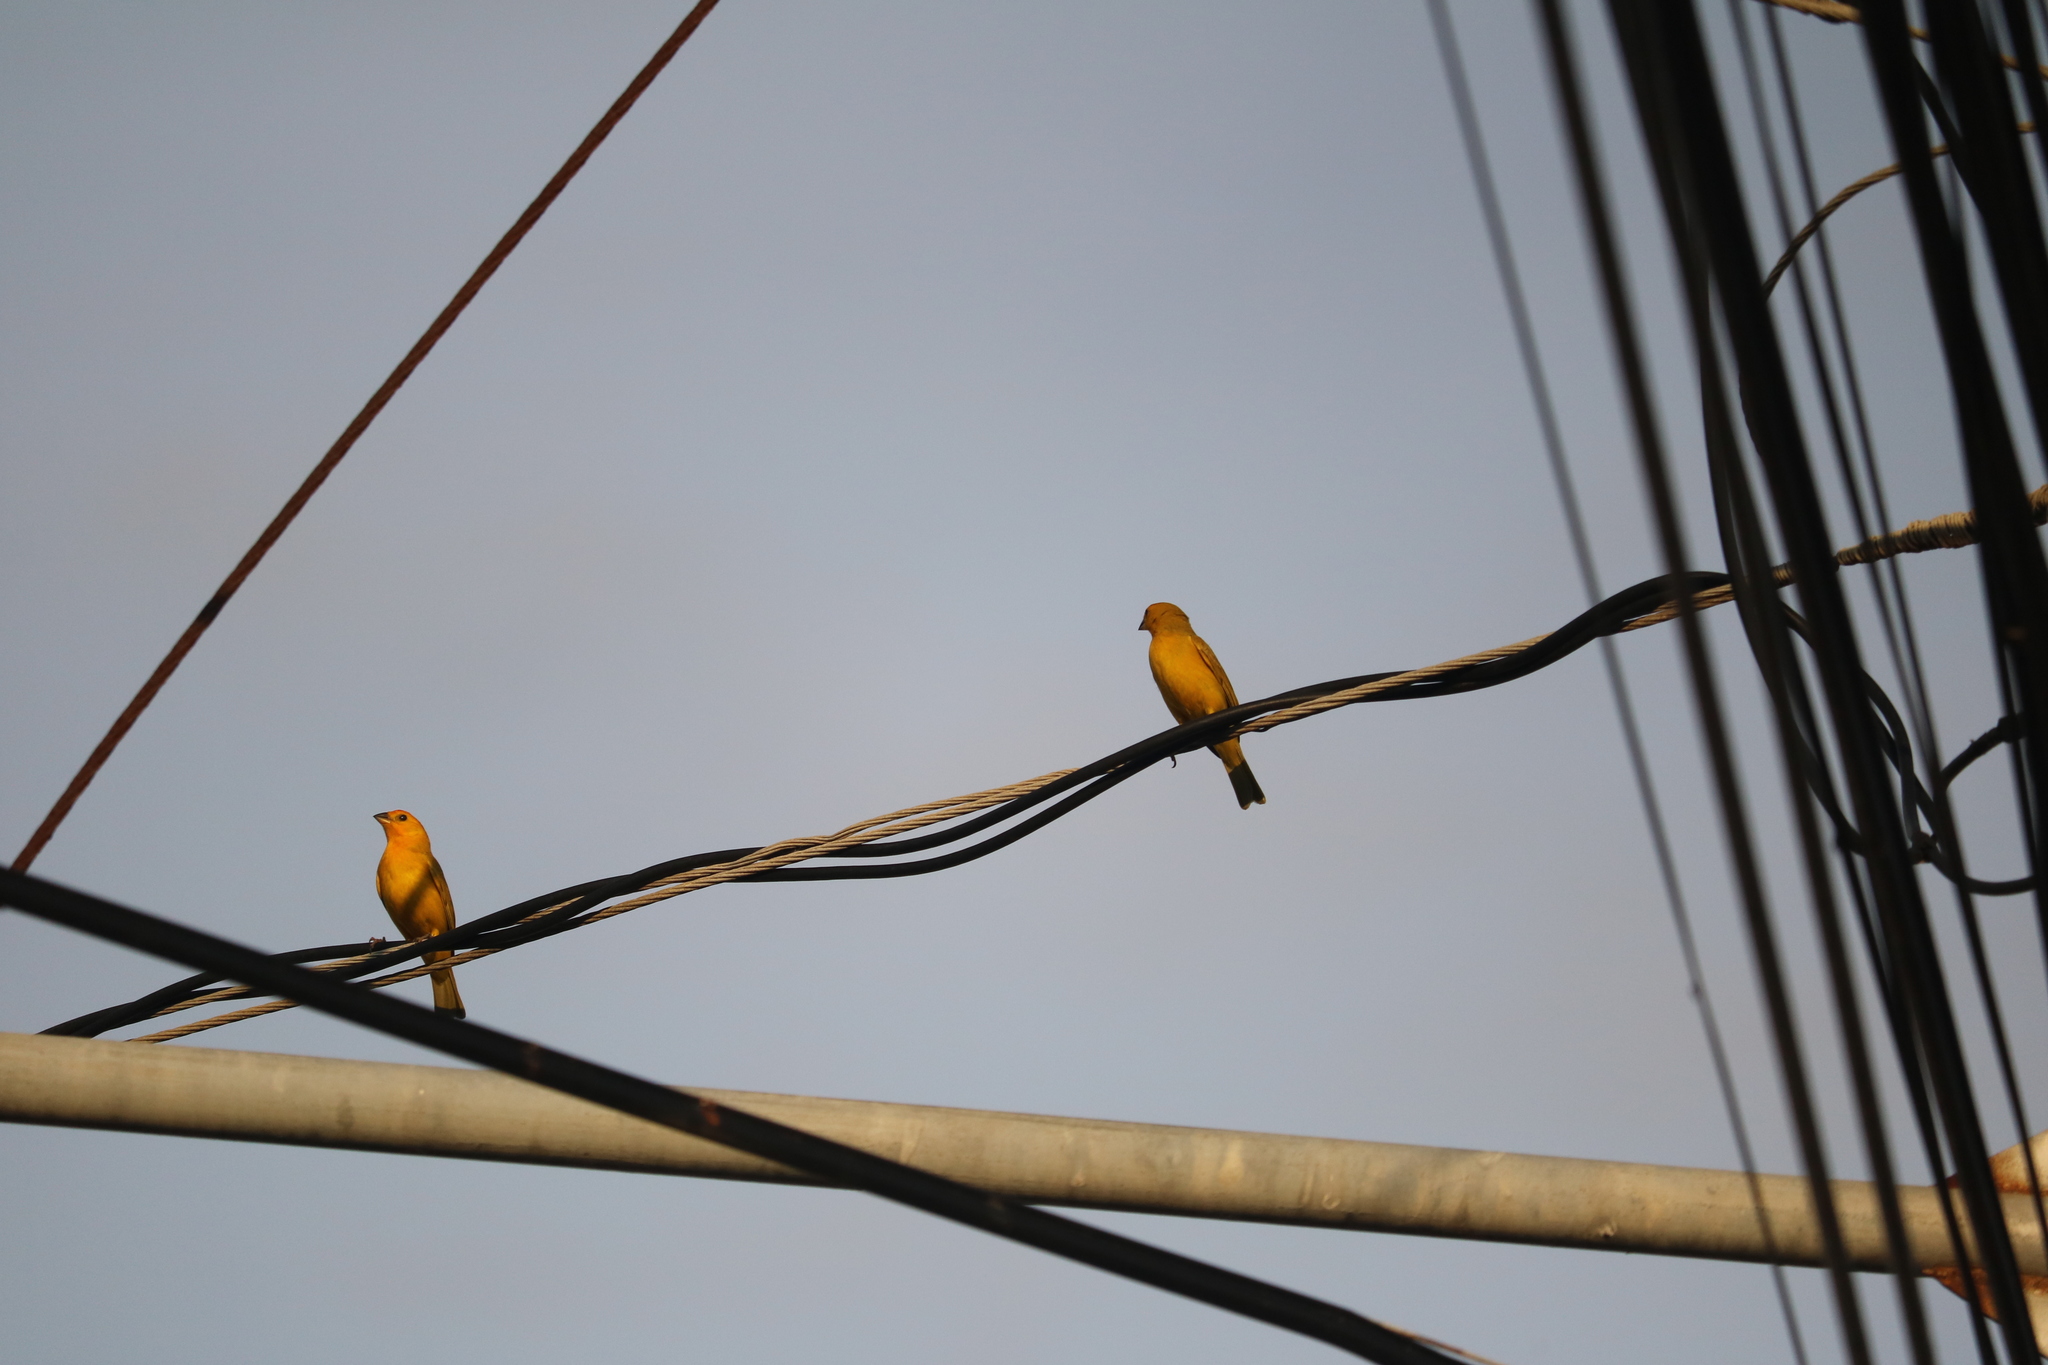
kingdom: Animalia
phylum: Chordata
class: Aves
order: Passeriformes
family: Thraupidae
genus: Sicalis
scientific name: Sicalis flaveola
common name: Saffron finch
